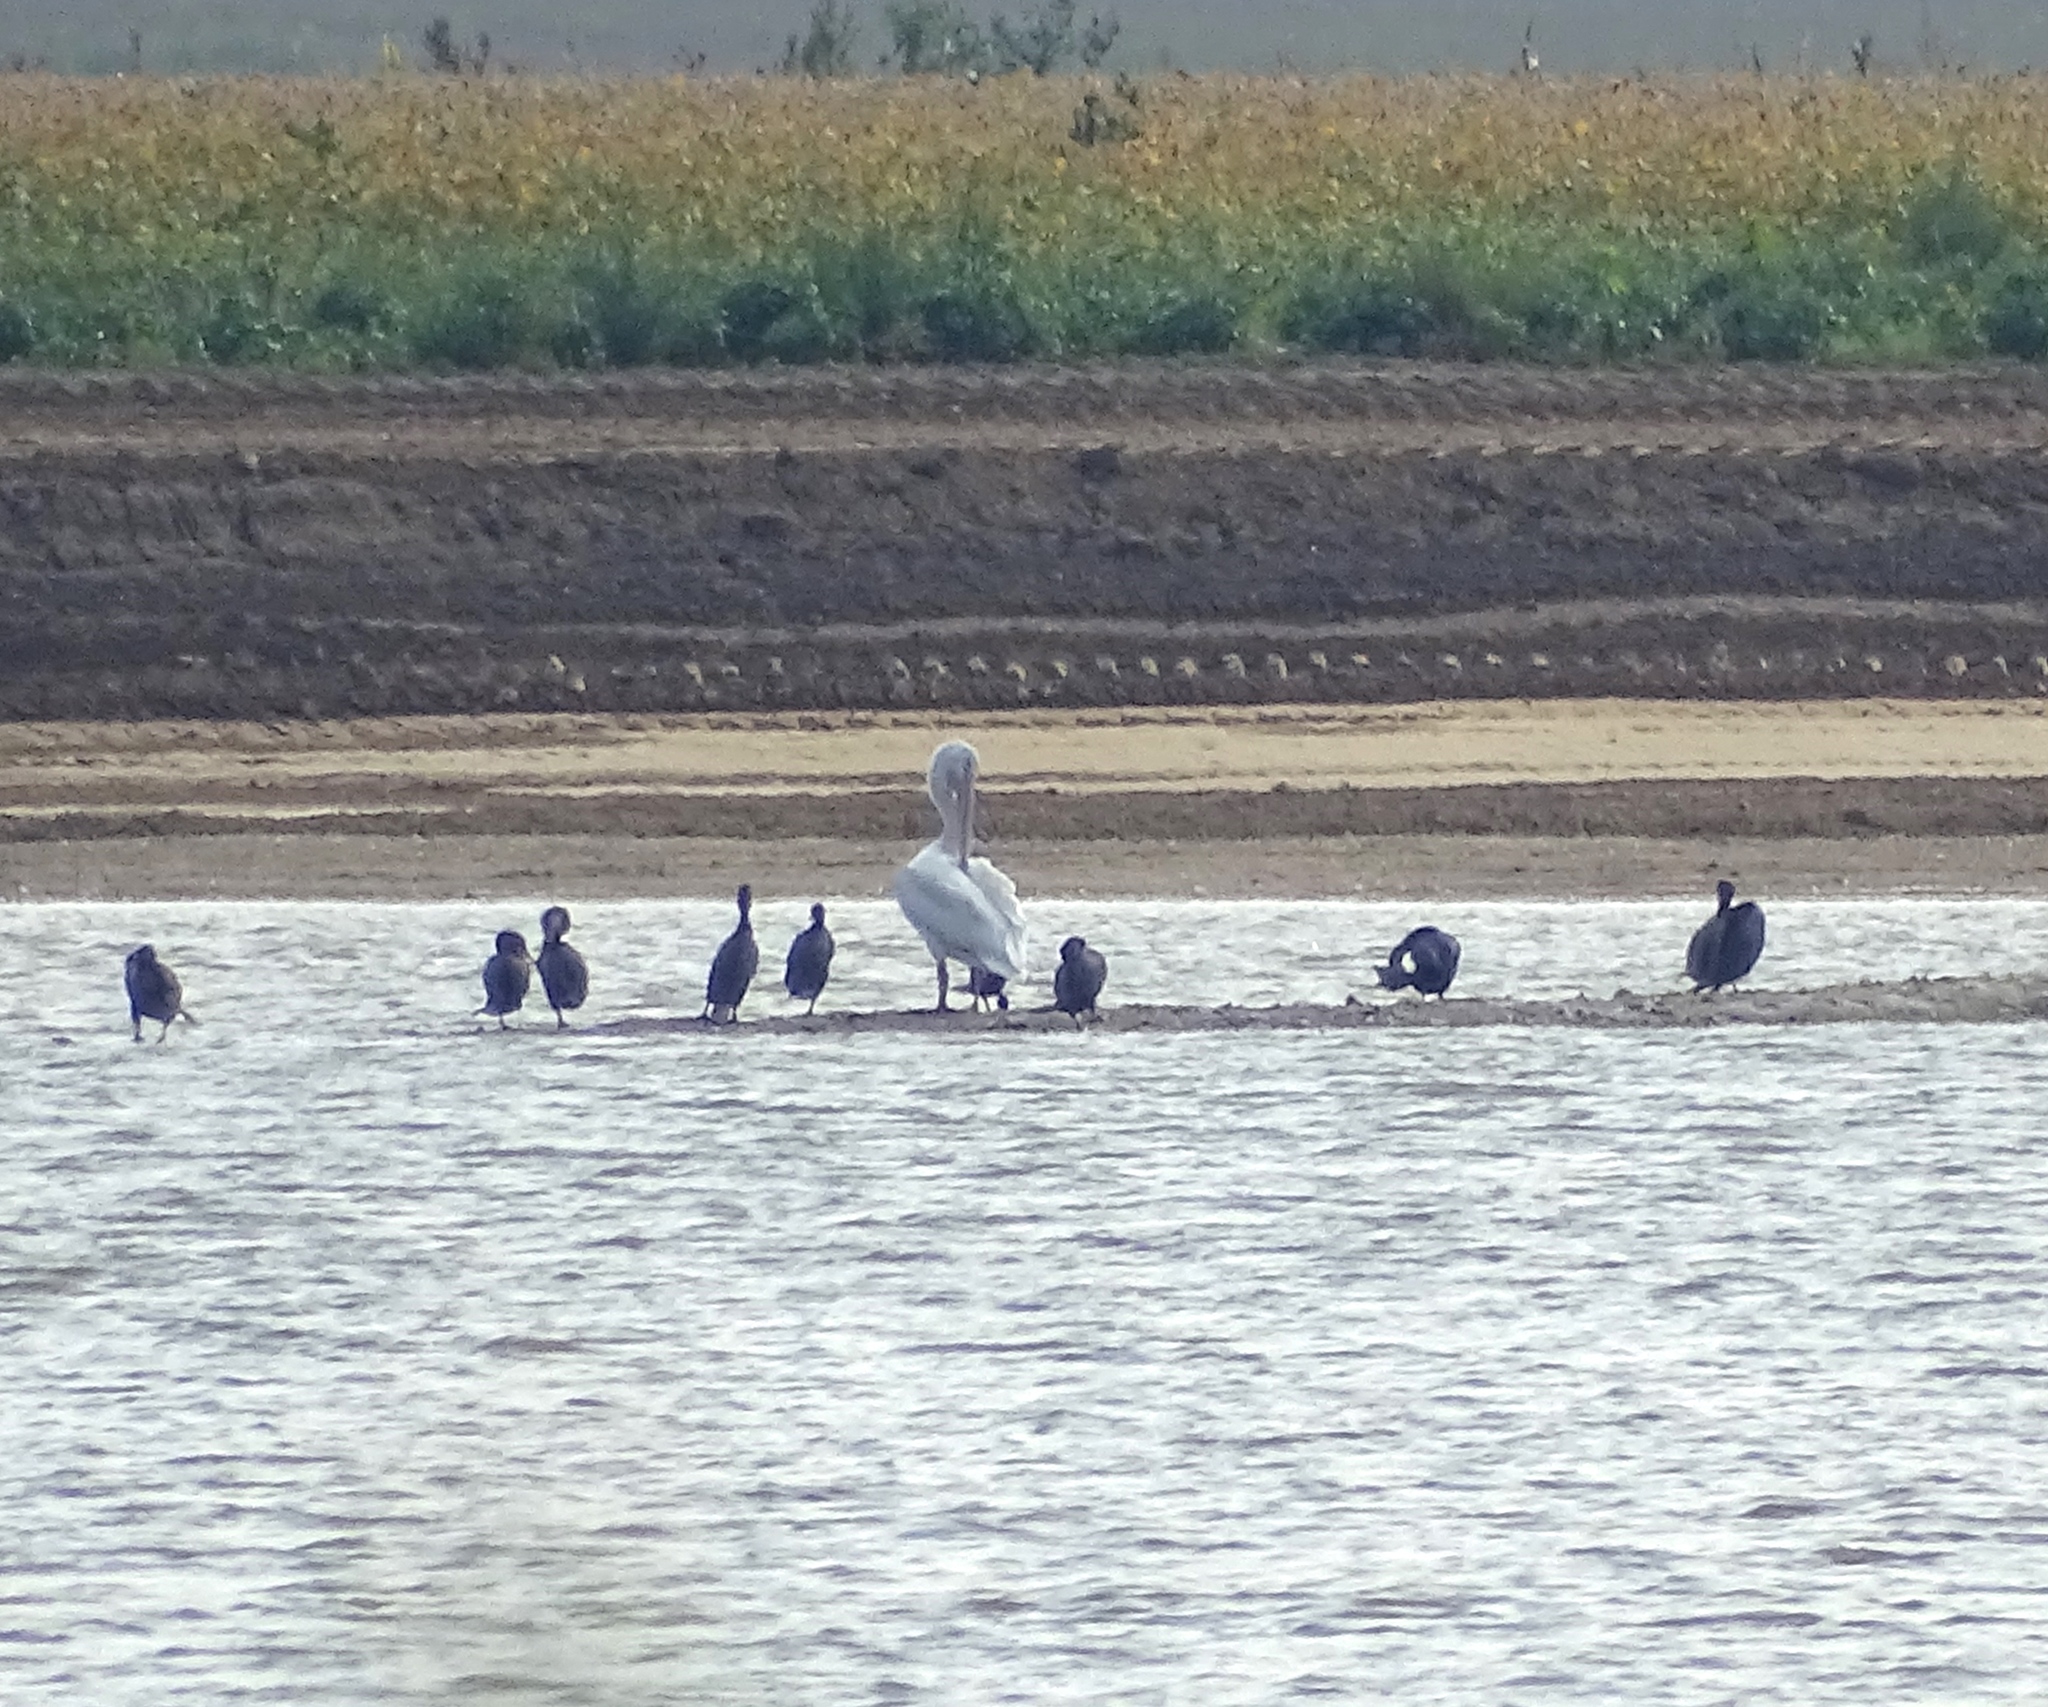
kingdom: Animalia
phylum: Chordata
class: Aves
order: Pelecaniformes
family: Pelecanidae
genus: Pelecanus
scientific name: Pelecanus erythrorhynchos
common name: American white pelican
